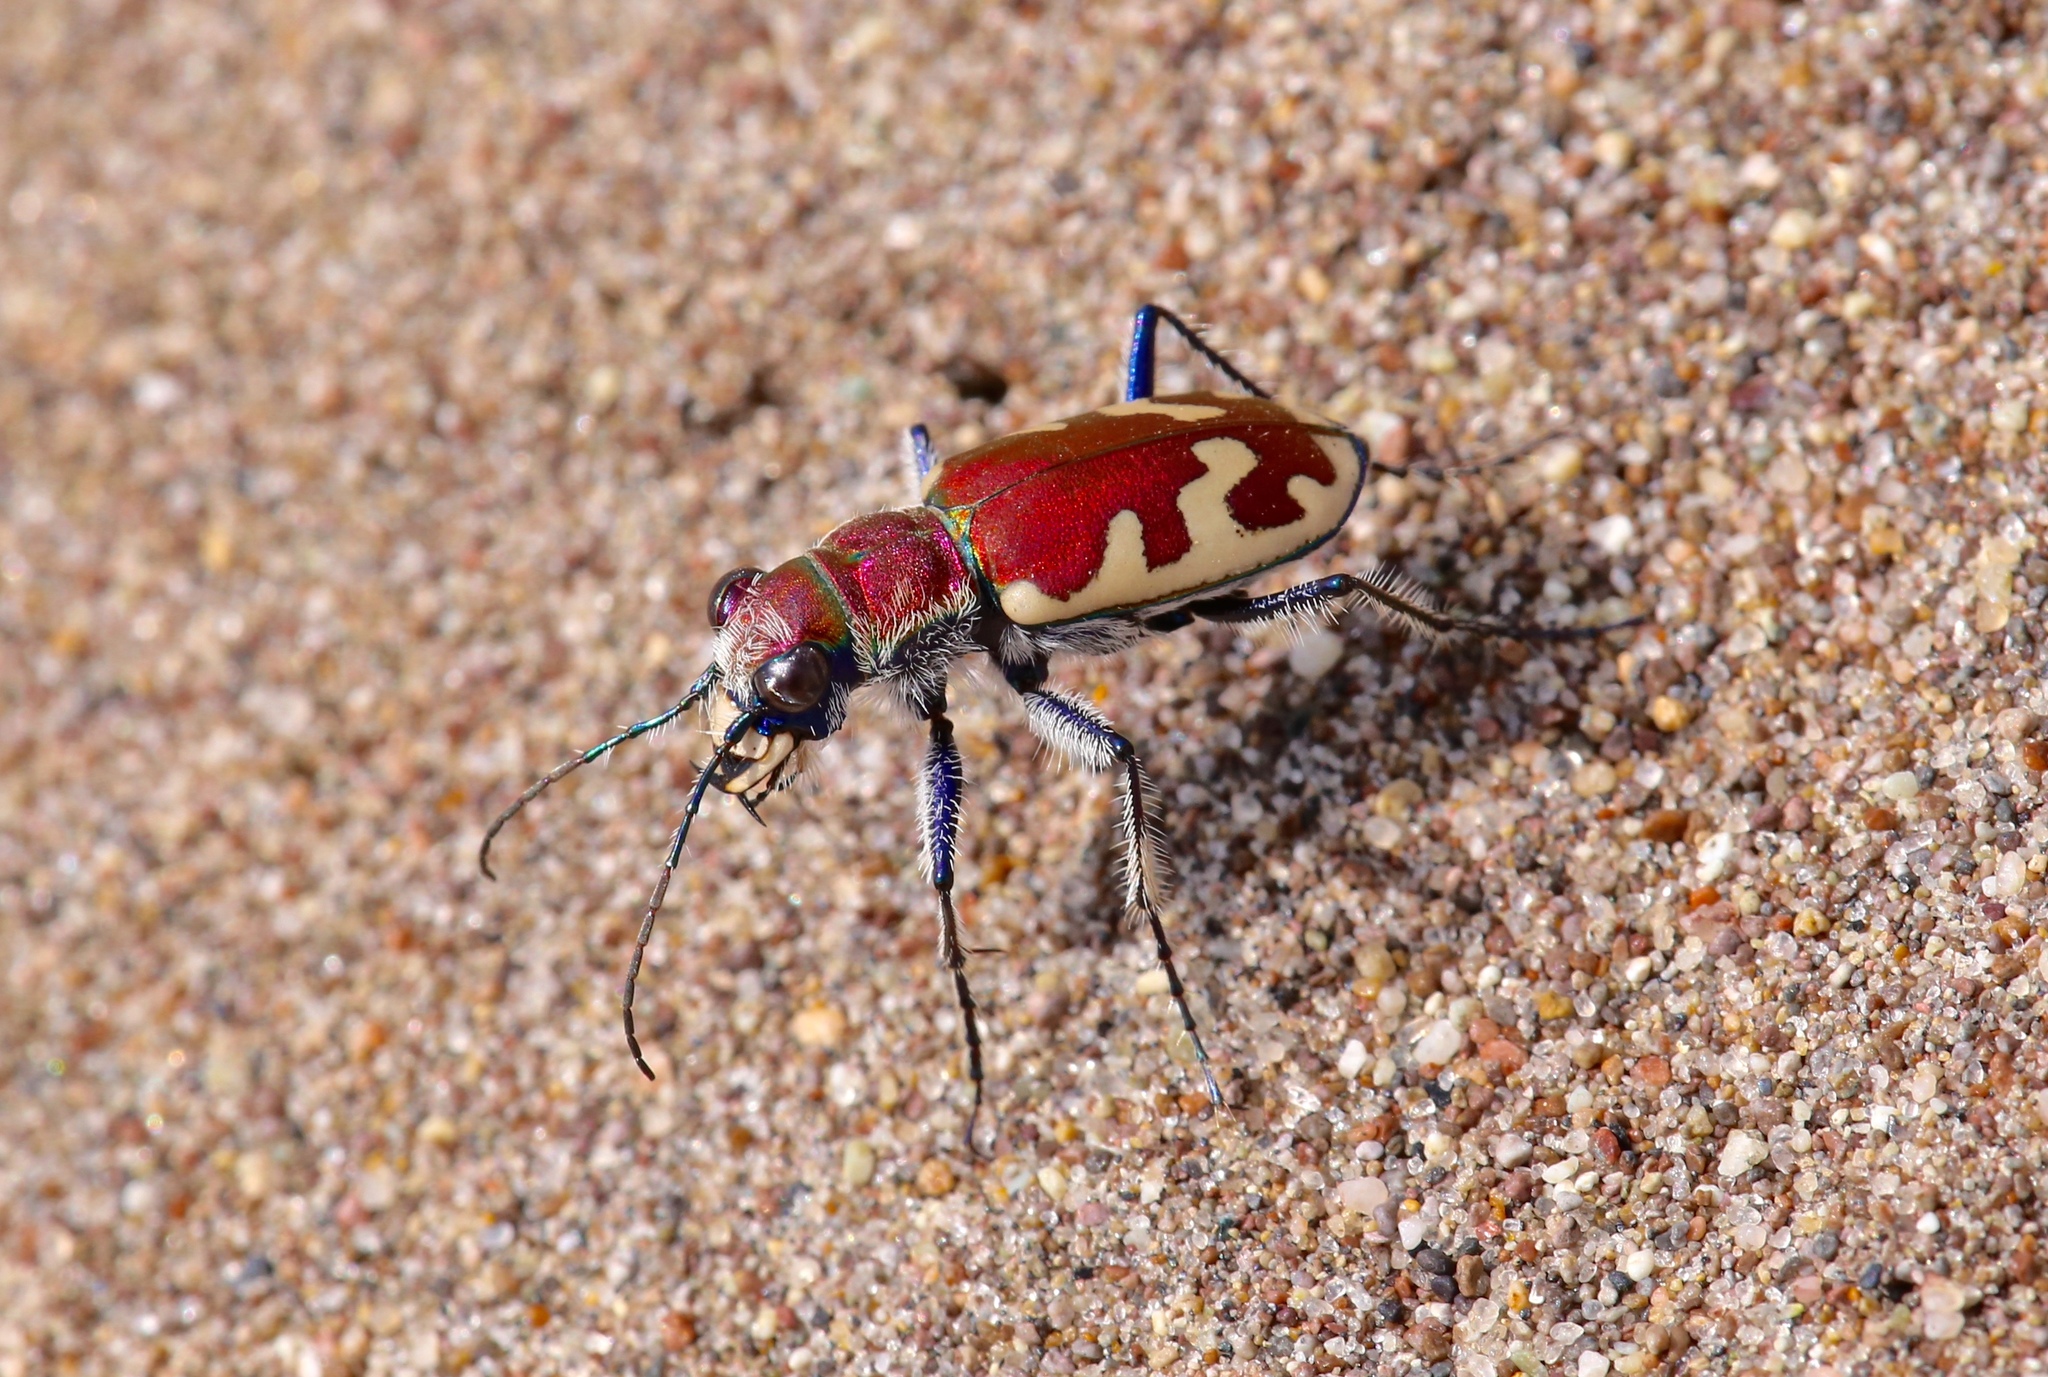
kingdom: Animalia
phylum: Arthropoda
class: Insecta
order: Coleoptera
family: Carabidae
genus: Cicindela
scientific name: Cicindela formosa
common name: Big sand tiger beetle
